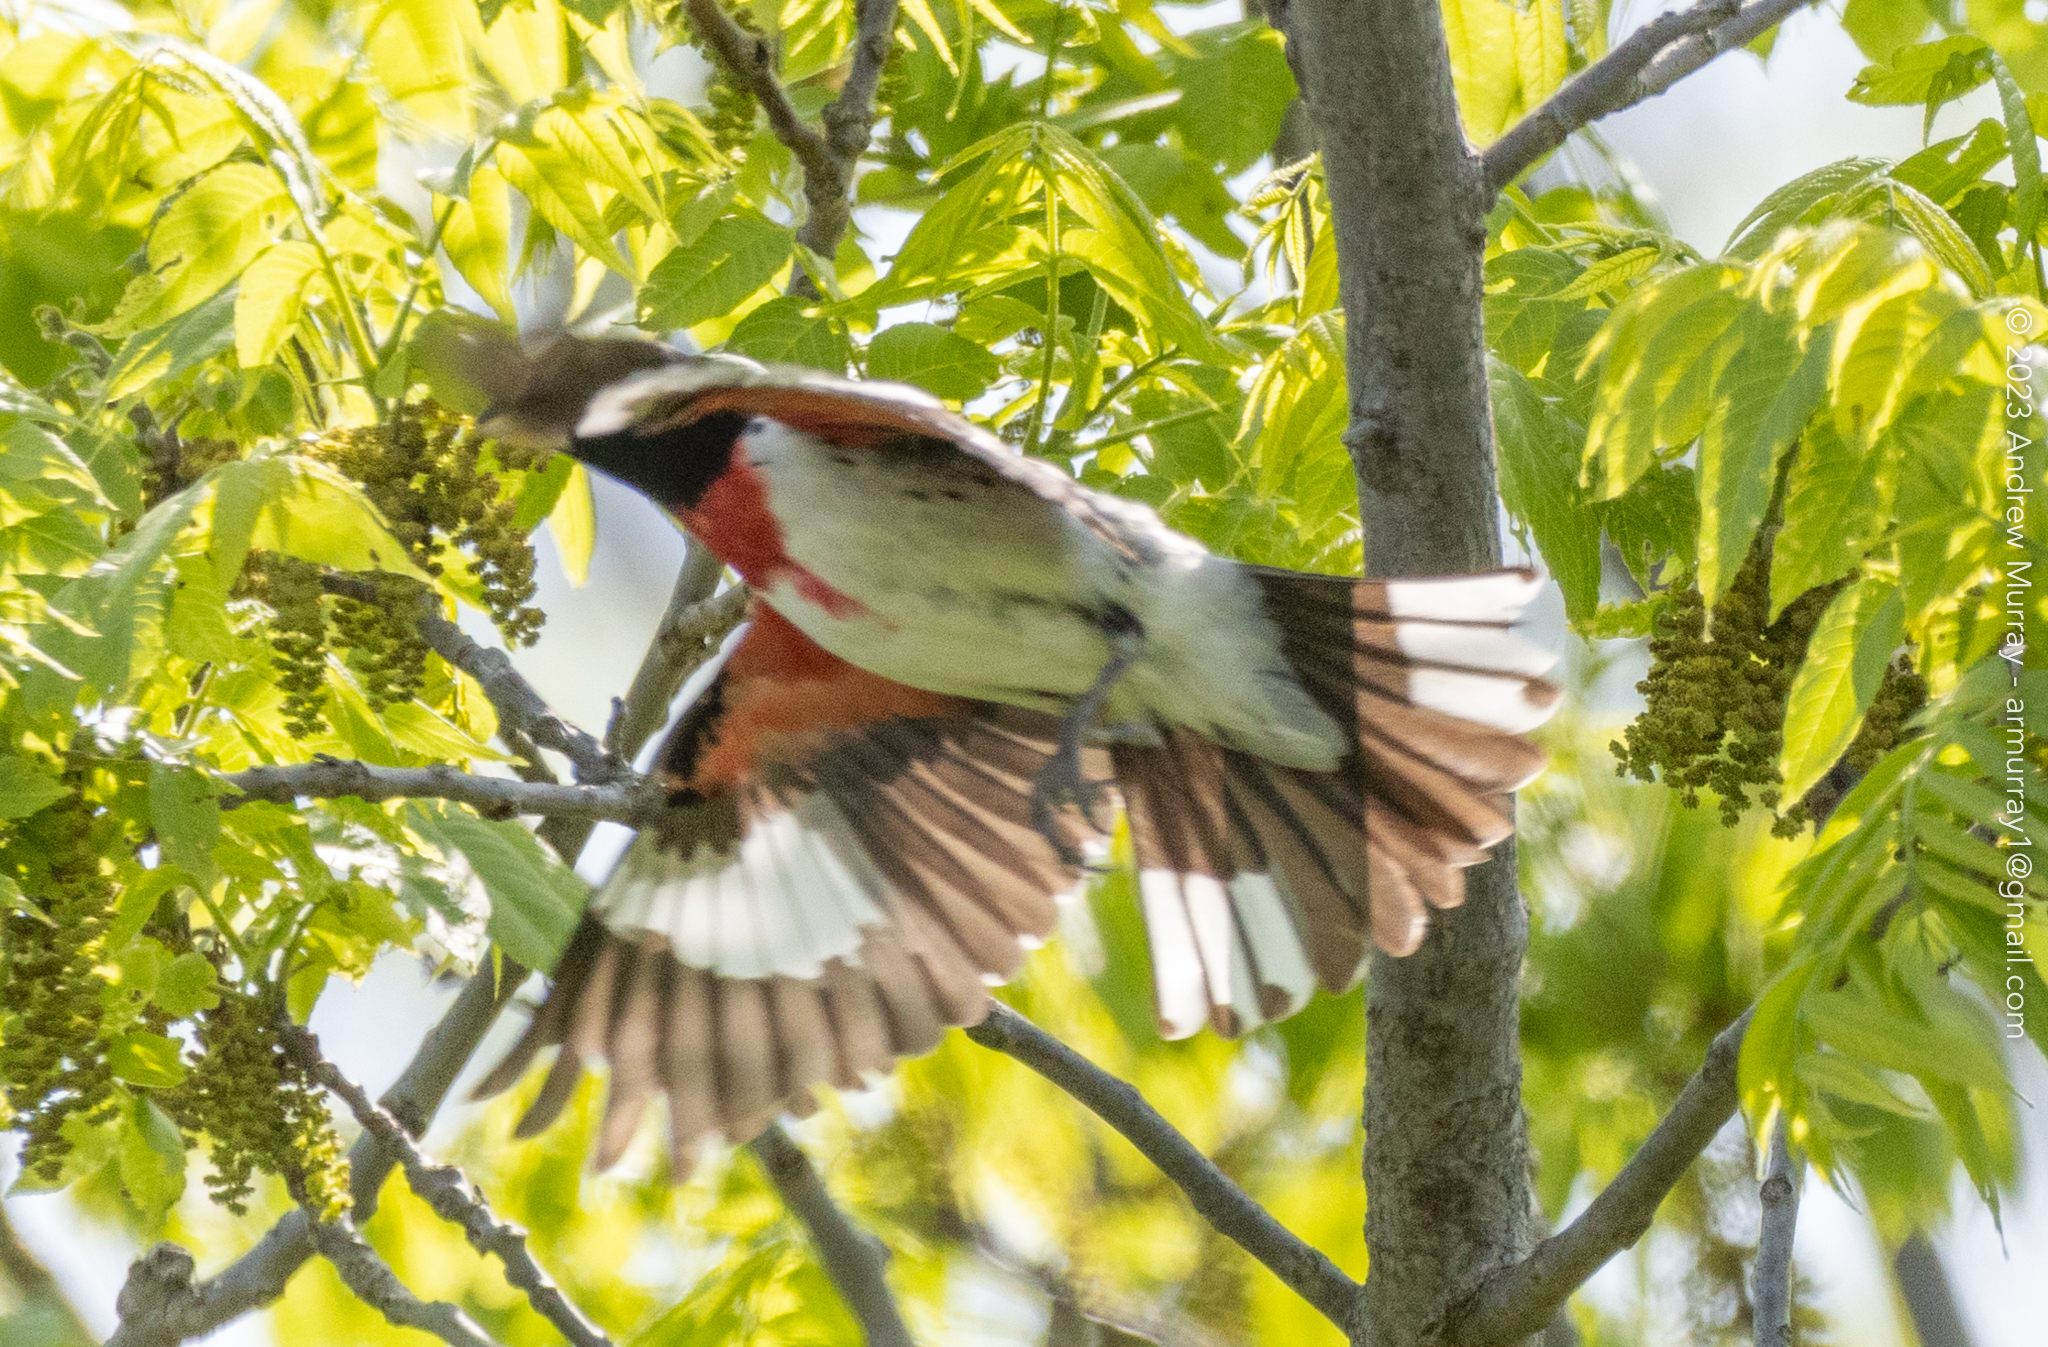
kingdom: Animalia
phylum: Chordata
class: Aves
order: Passeriformes
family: Cardinalidae
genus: Pheucticus
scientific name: Pheucticus ludovicianus
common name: Rose-breasted grosbeak
